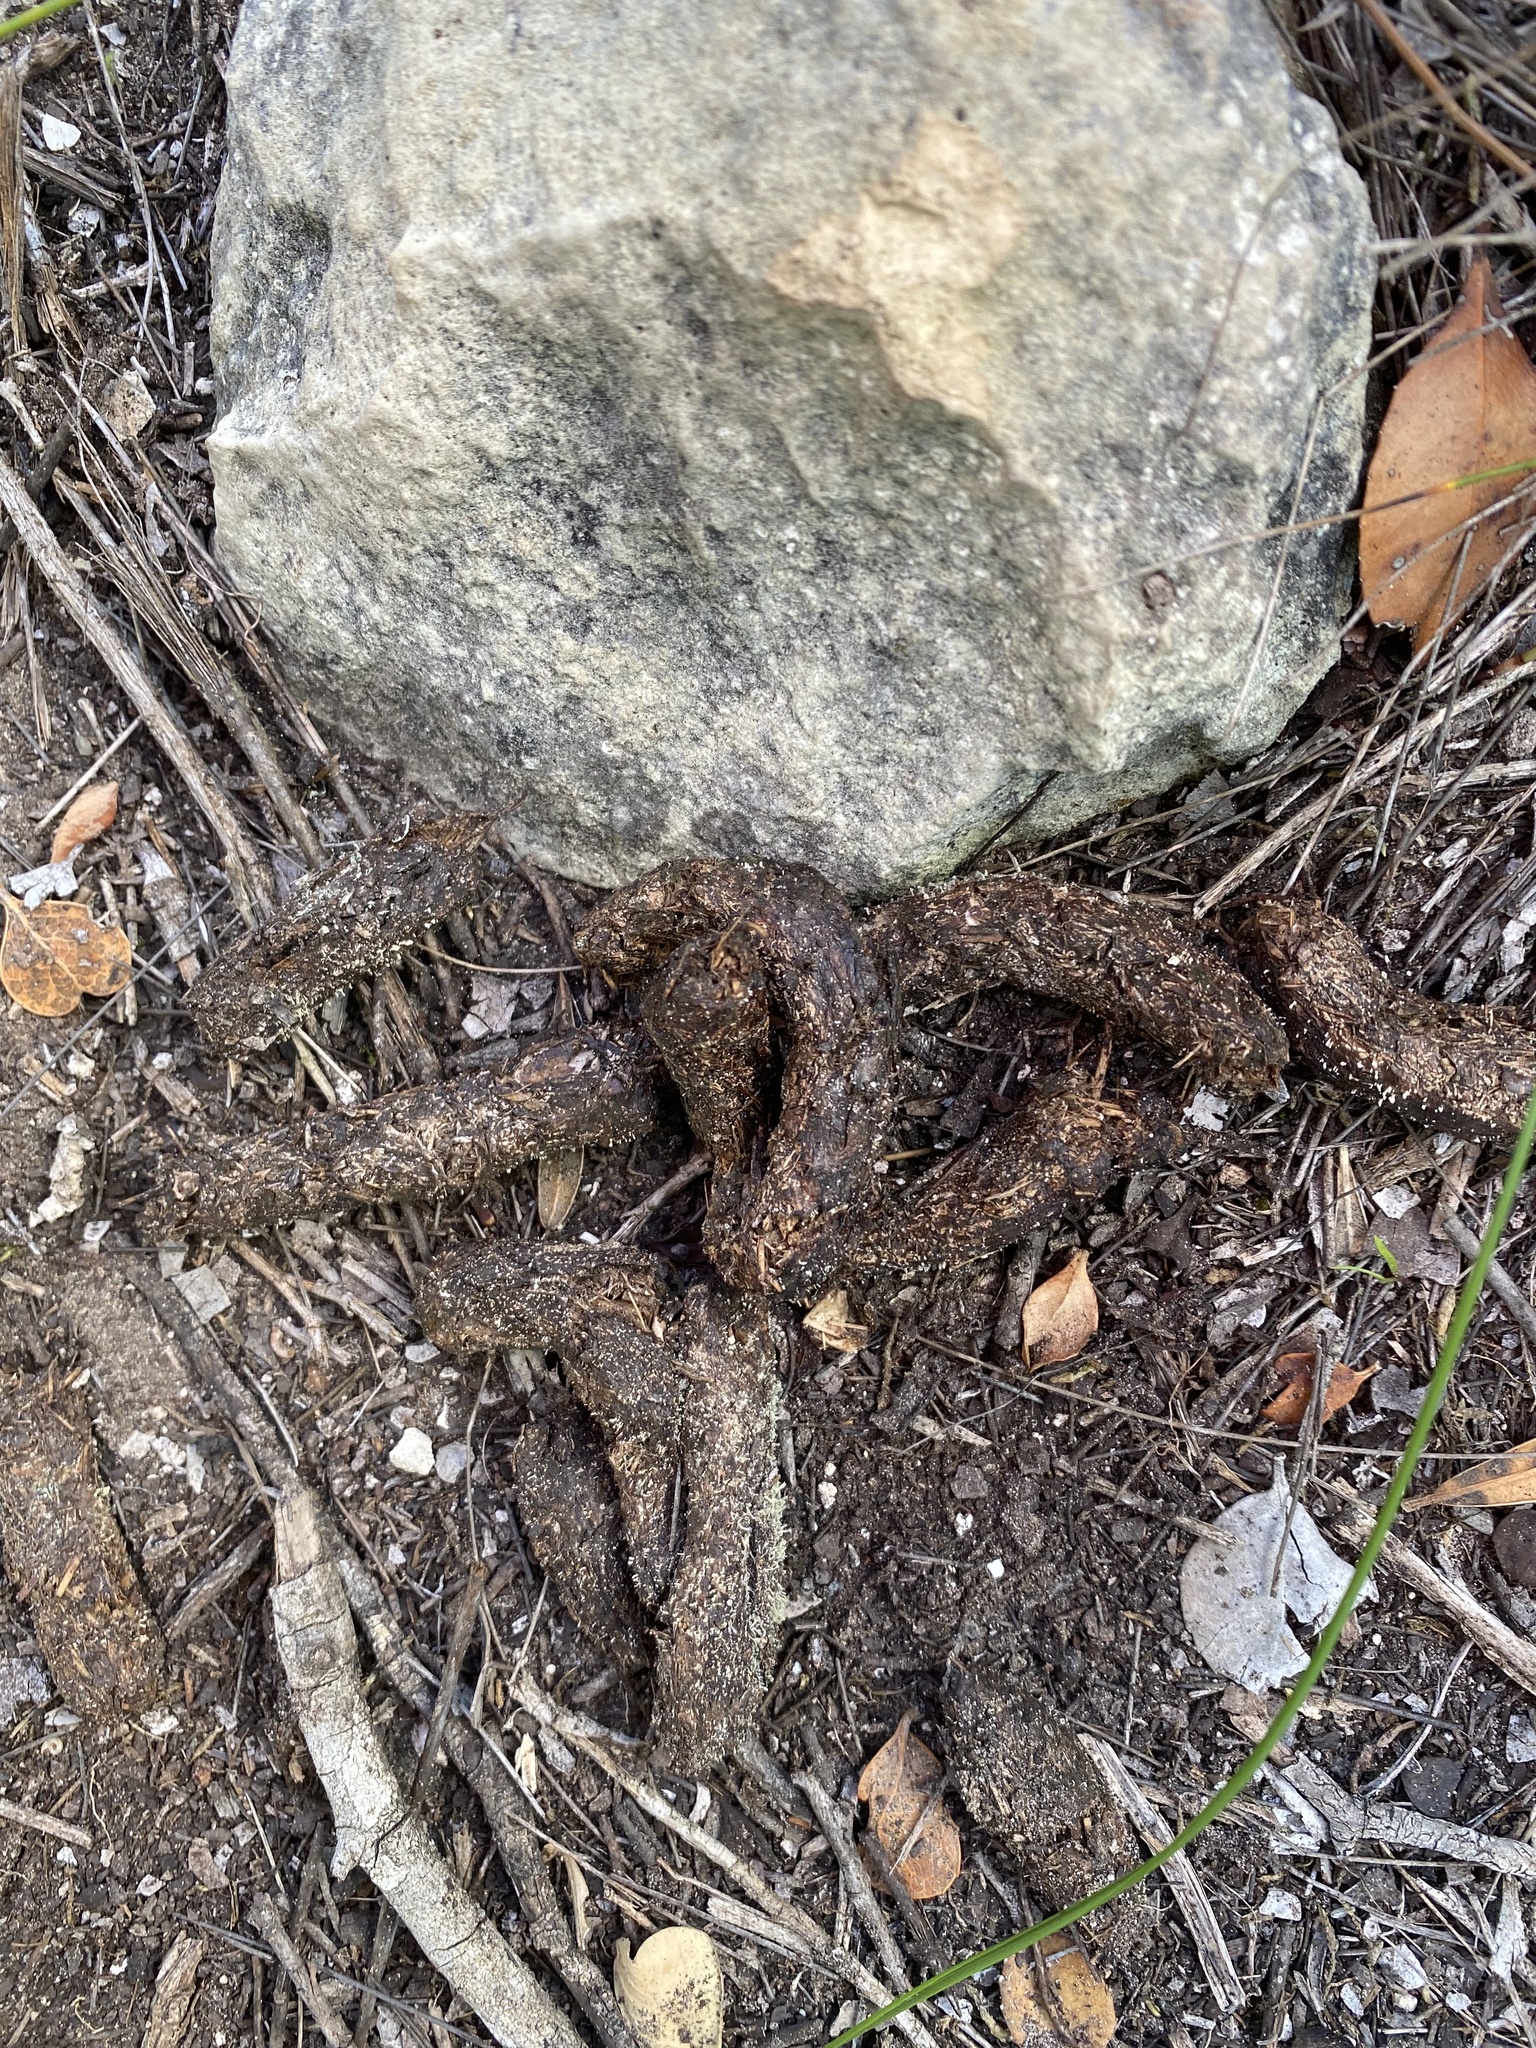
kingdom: Animalia
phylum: Chordata
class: Mammalia
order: Rodentia
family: Hystricidae
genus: Hystrix
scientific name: Hystrix africaeaustralis
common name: Cape porcupine
